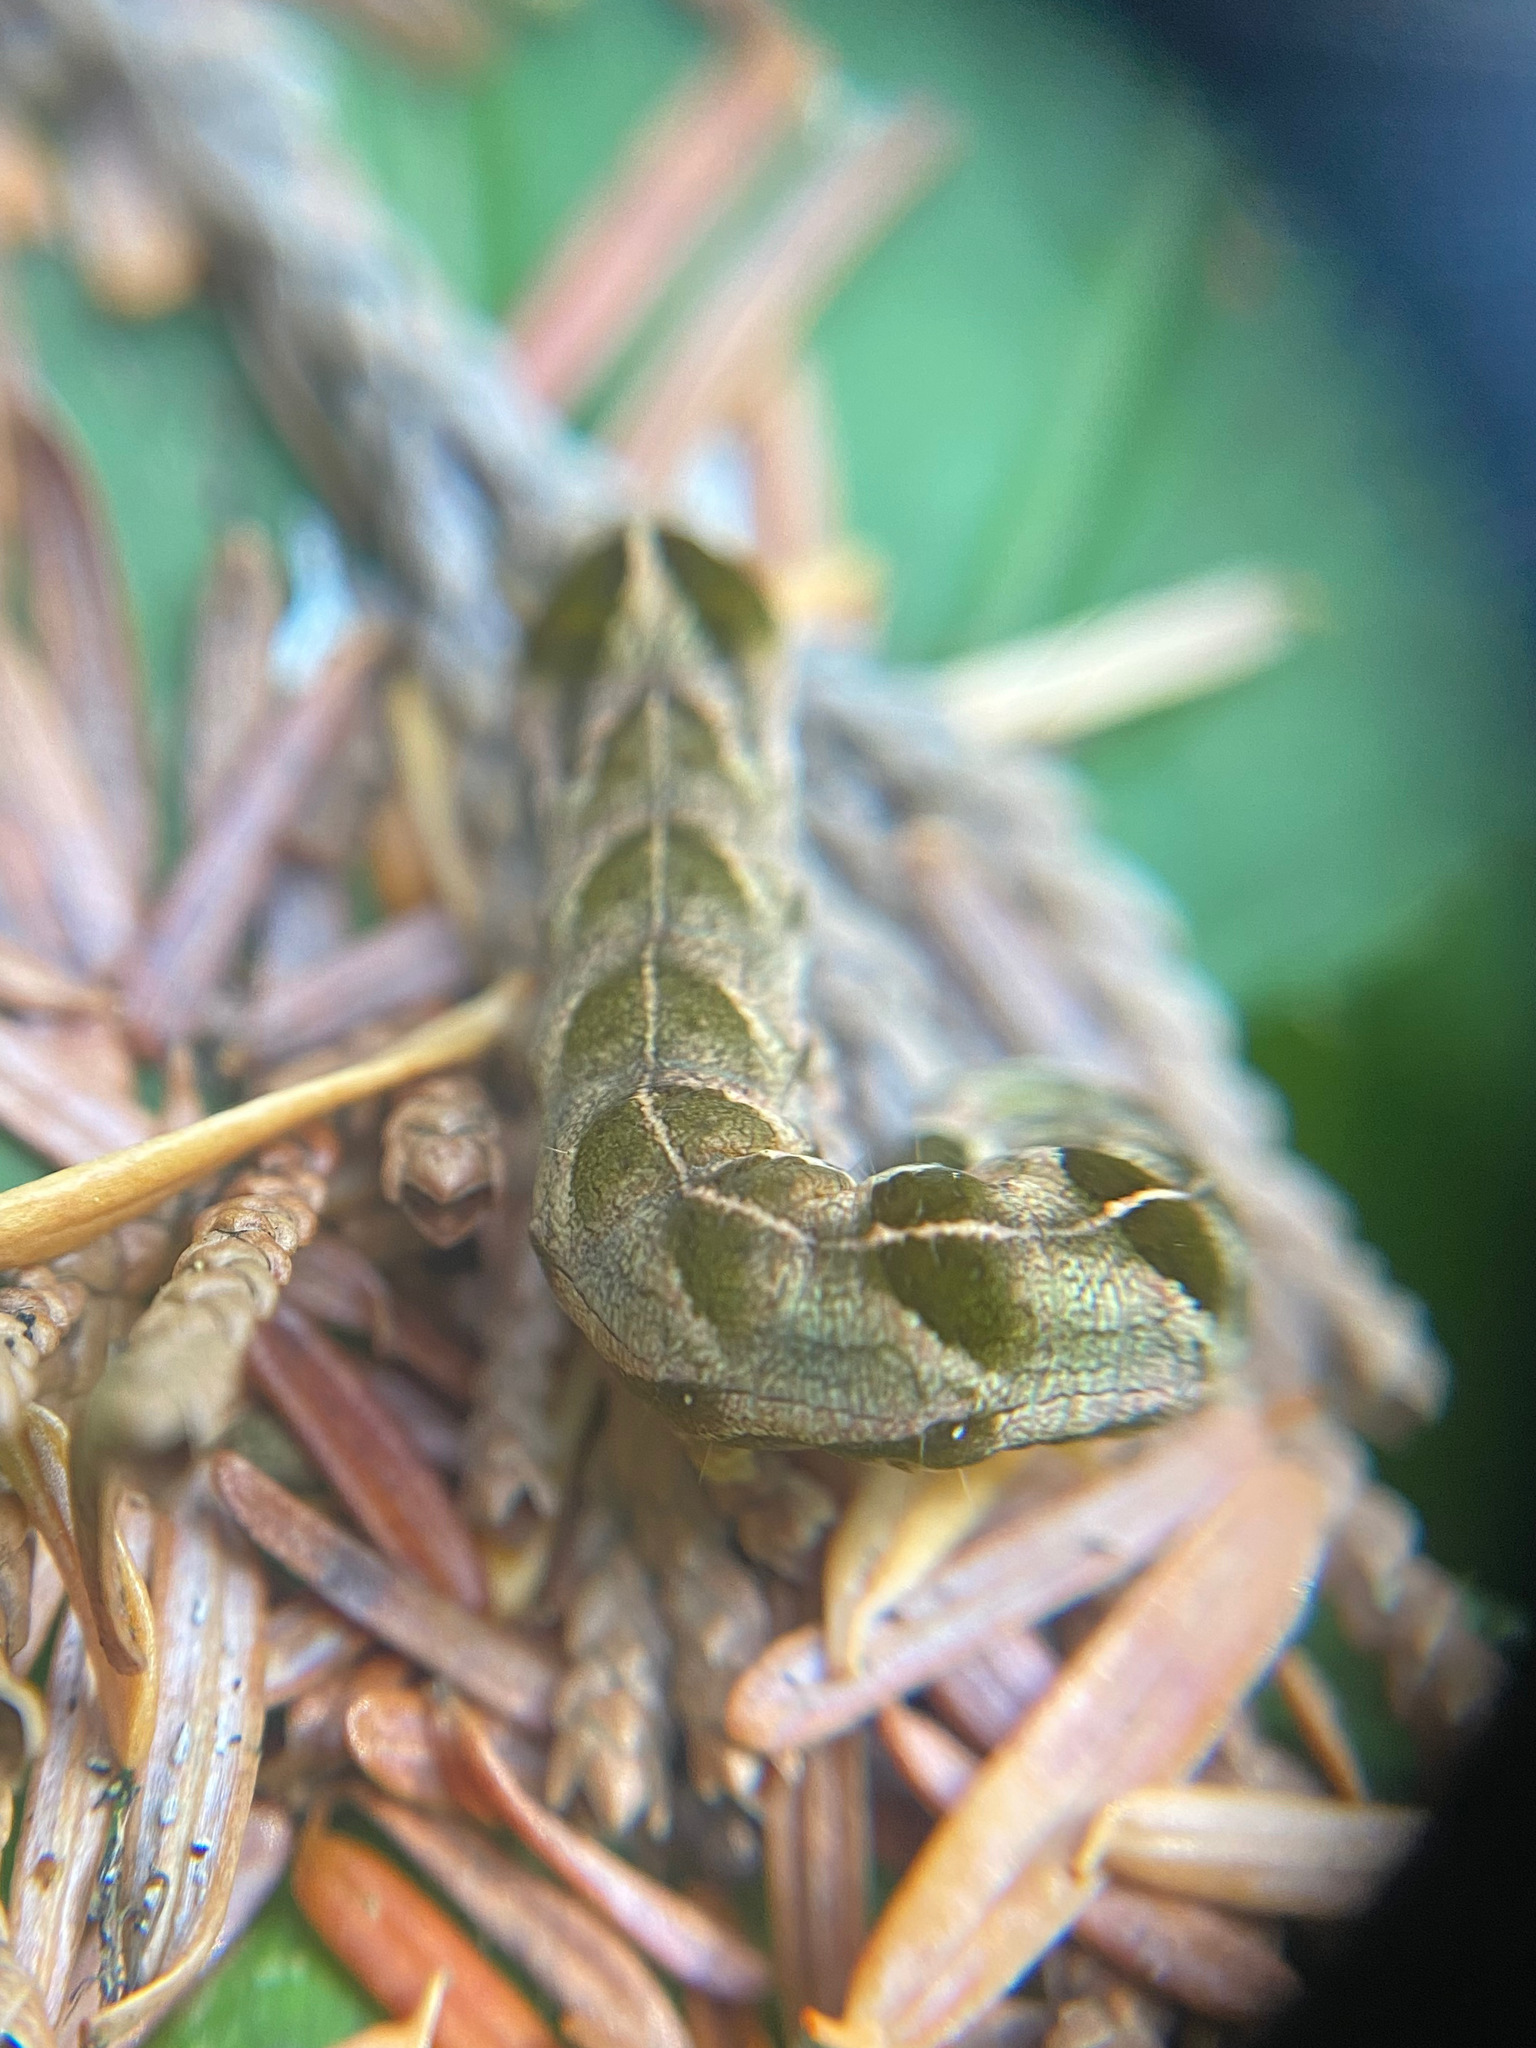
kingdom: Animalia
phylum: Arthropoda
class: Insecta
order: Lepidoptera
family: Noctuidae
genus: Melanchra
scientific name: Melanchra adjuncta
